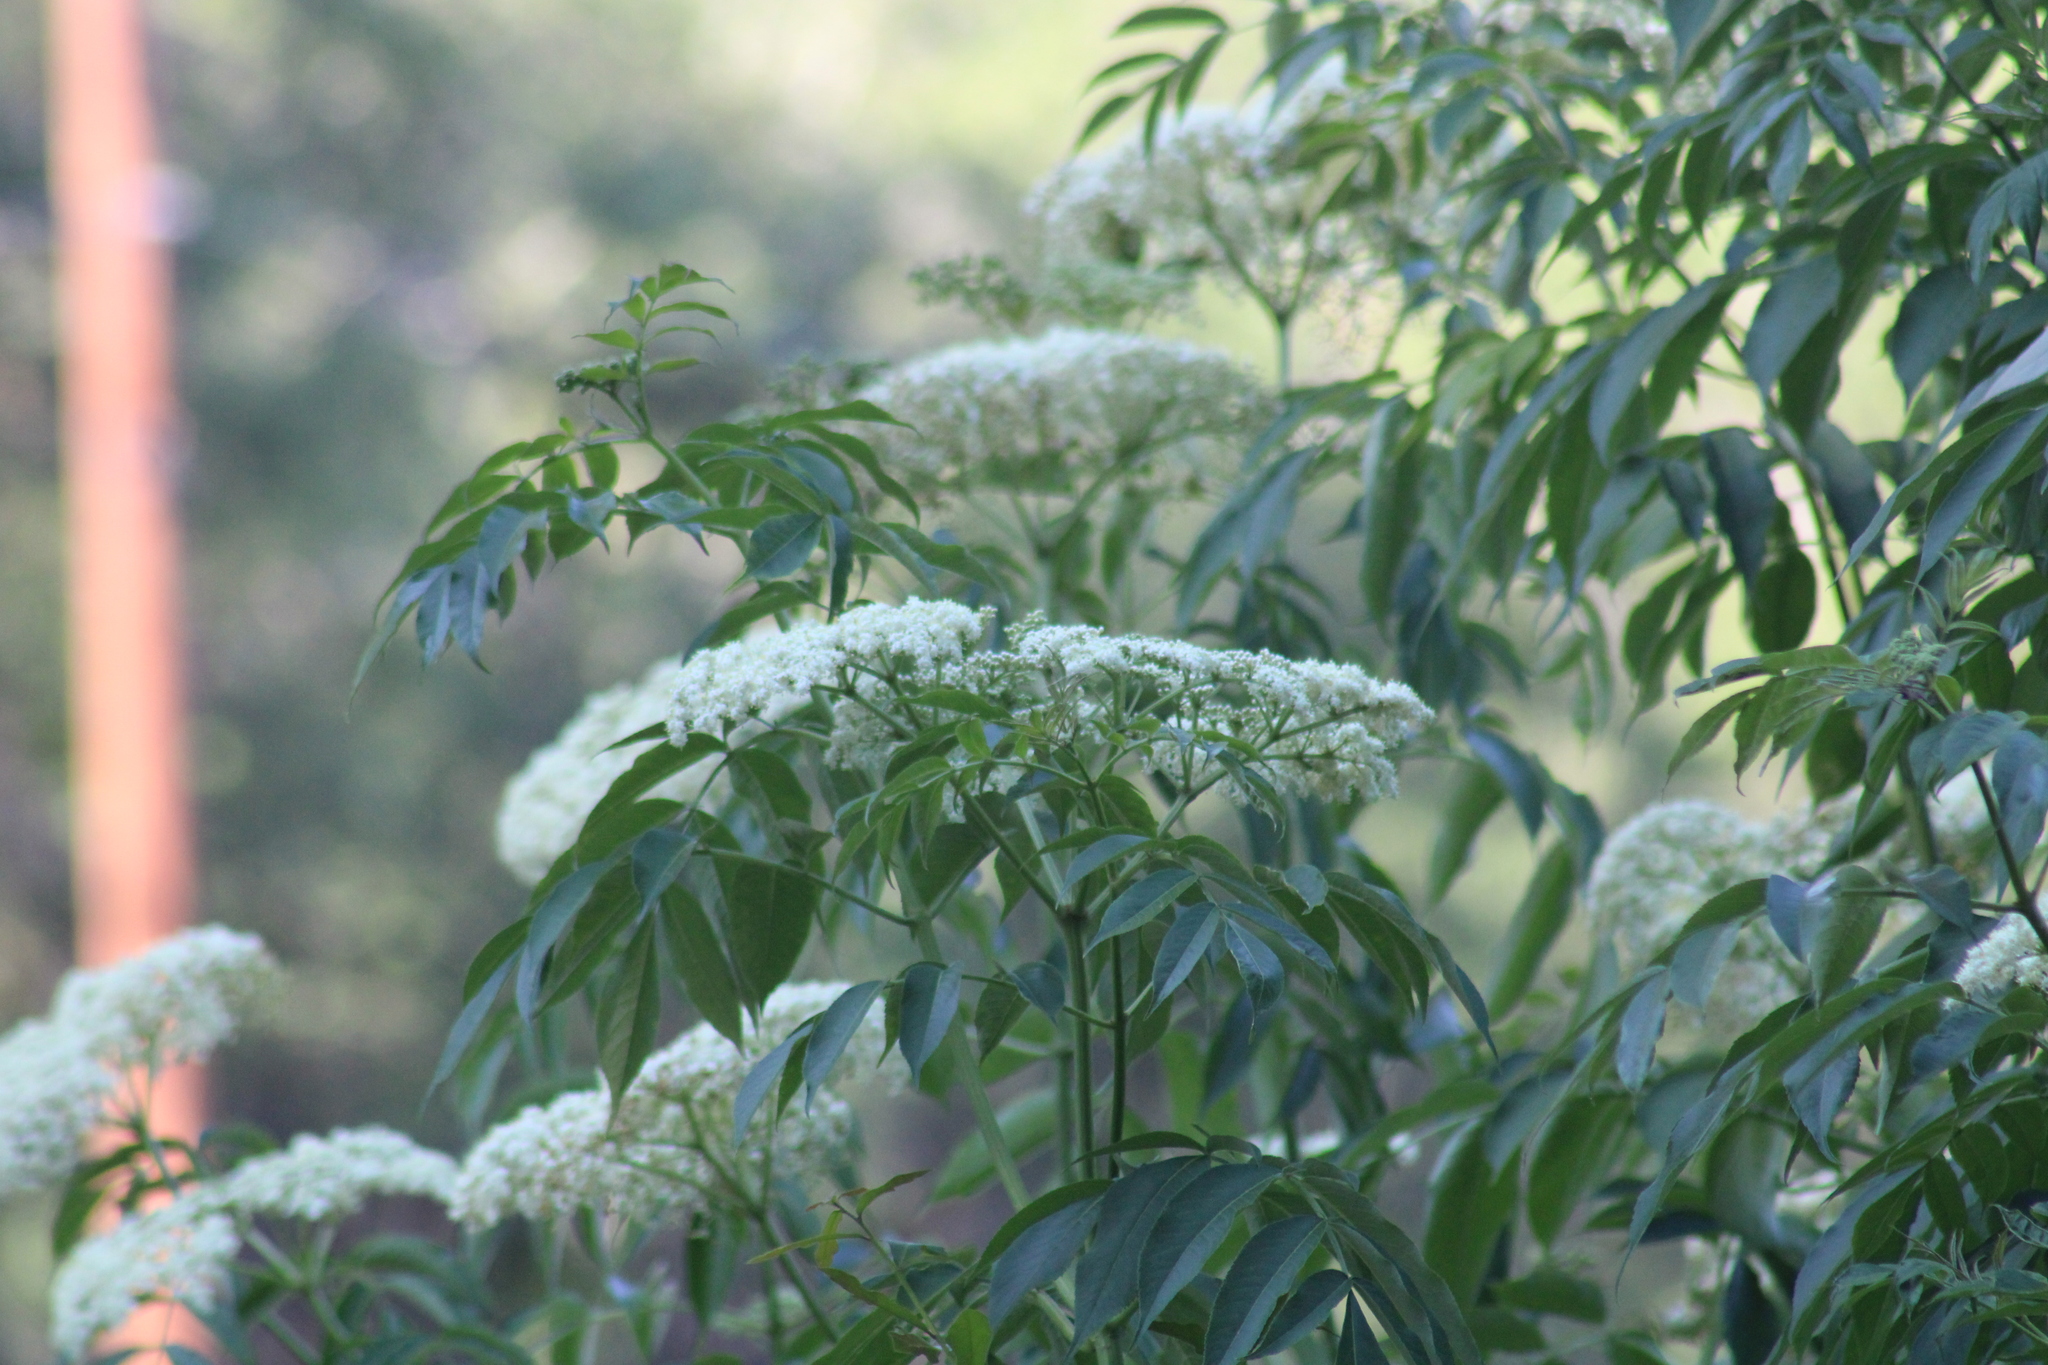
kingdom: Plantae
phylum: Tracheophyta
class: Magnoliopsida
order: Dipsacales
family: Viburnaceae
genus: Sambucus
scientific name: Sambucus canadensis
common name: American elder
